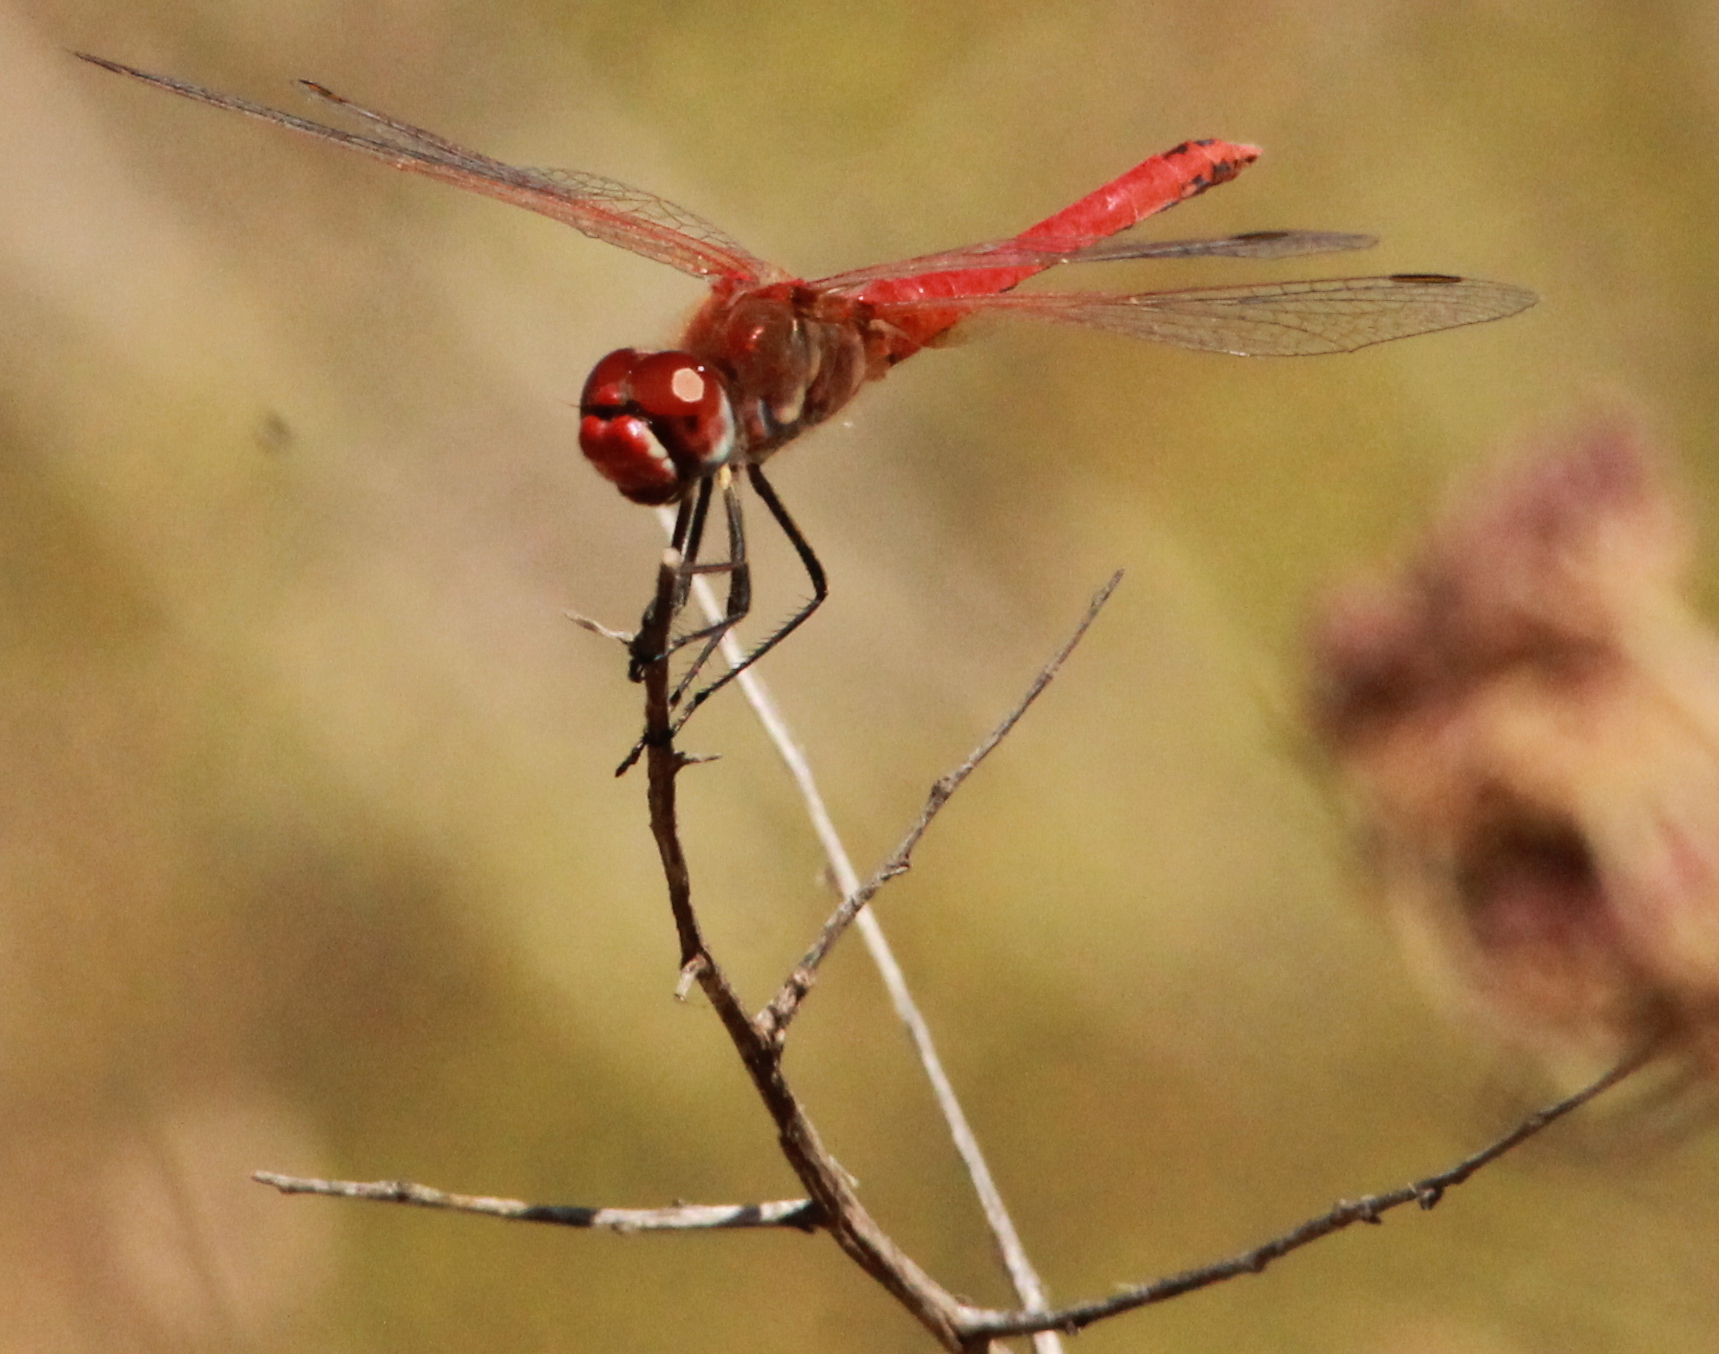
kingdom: Animalia
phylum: Arthropoda
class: Insecta
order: Odonata
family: Libellulidae
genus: Sympetrum
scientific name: Sympetrum fonscolombii
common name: Red-veined darter
